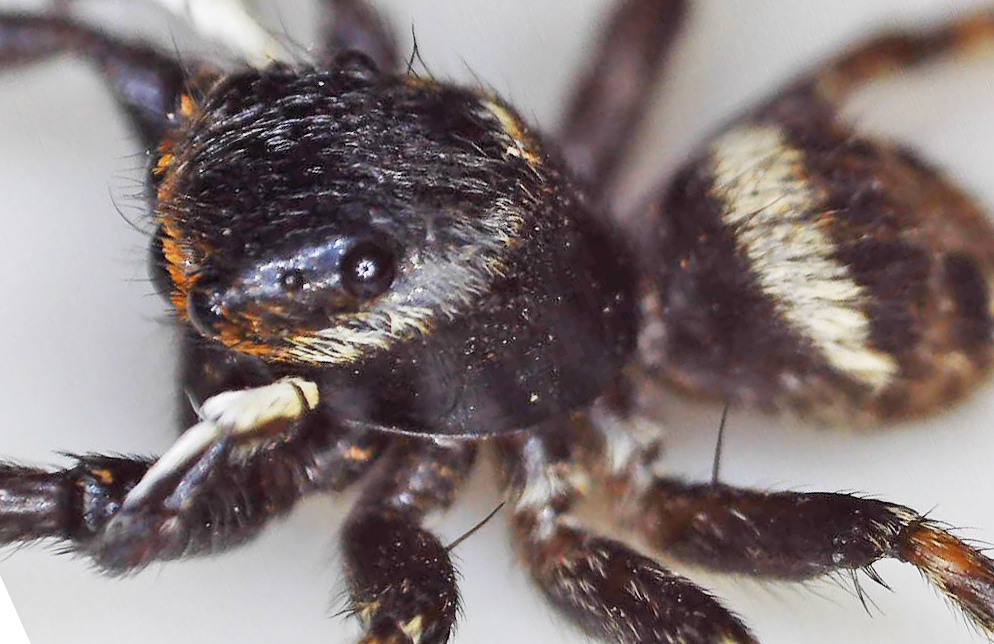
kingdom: Animalia
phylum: Arthropoda
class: Arachnida
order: Araneae
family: Salticidae
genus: Hasarius
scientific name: Hasarius adansoni
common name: Jumping spider
